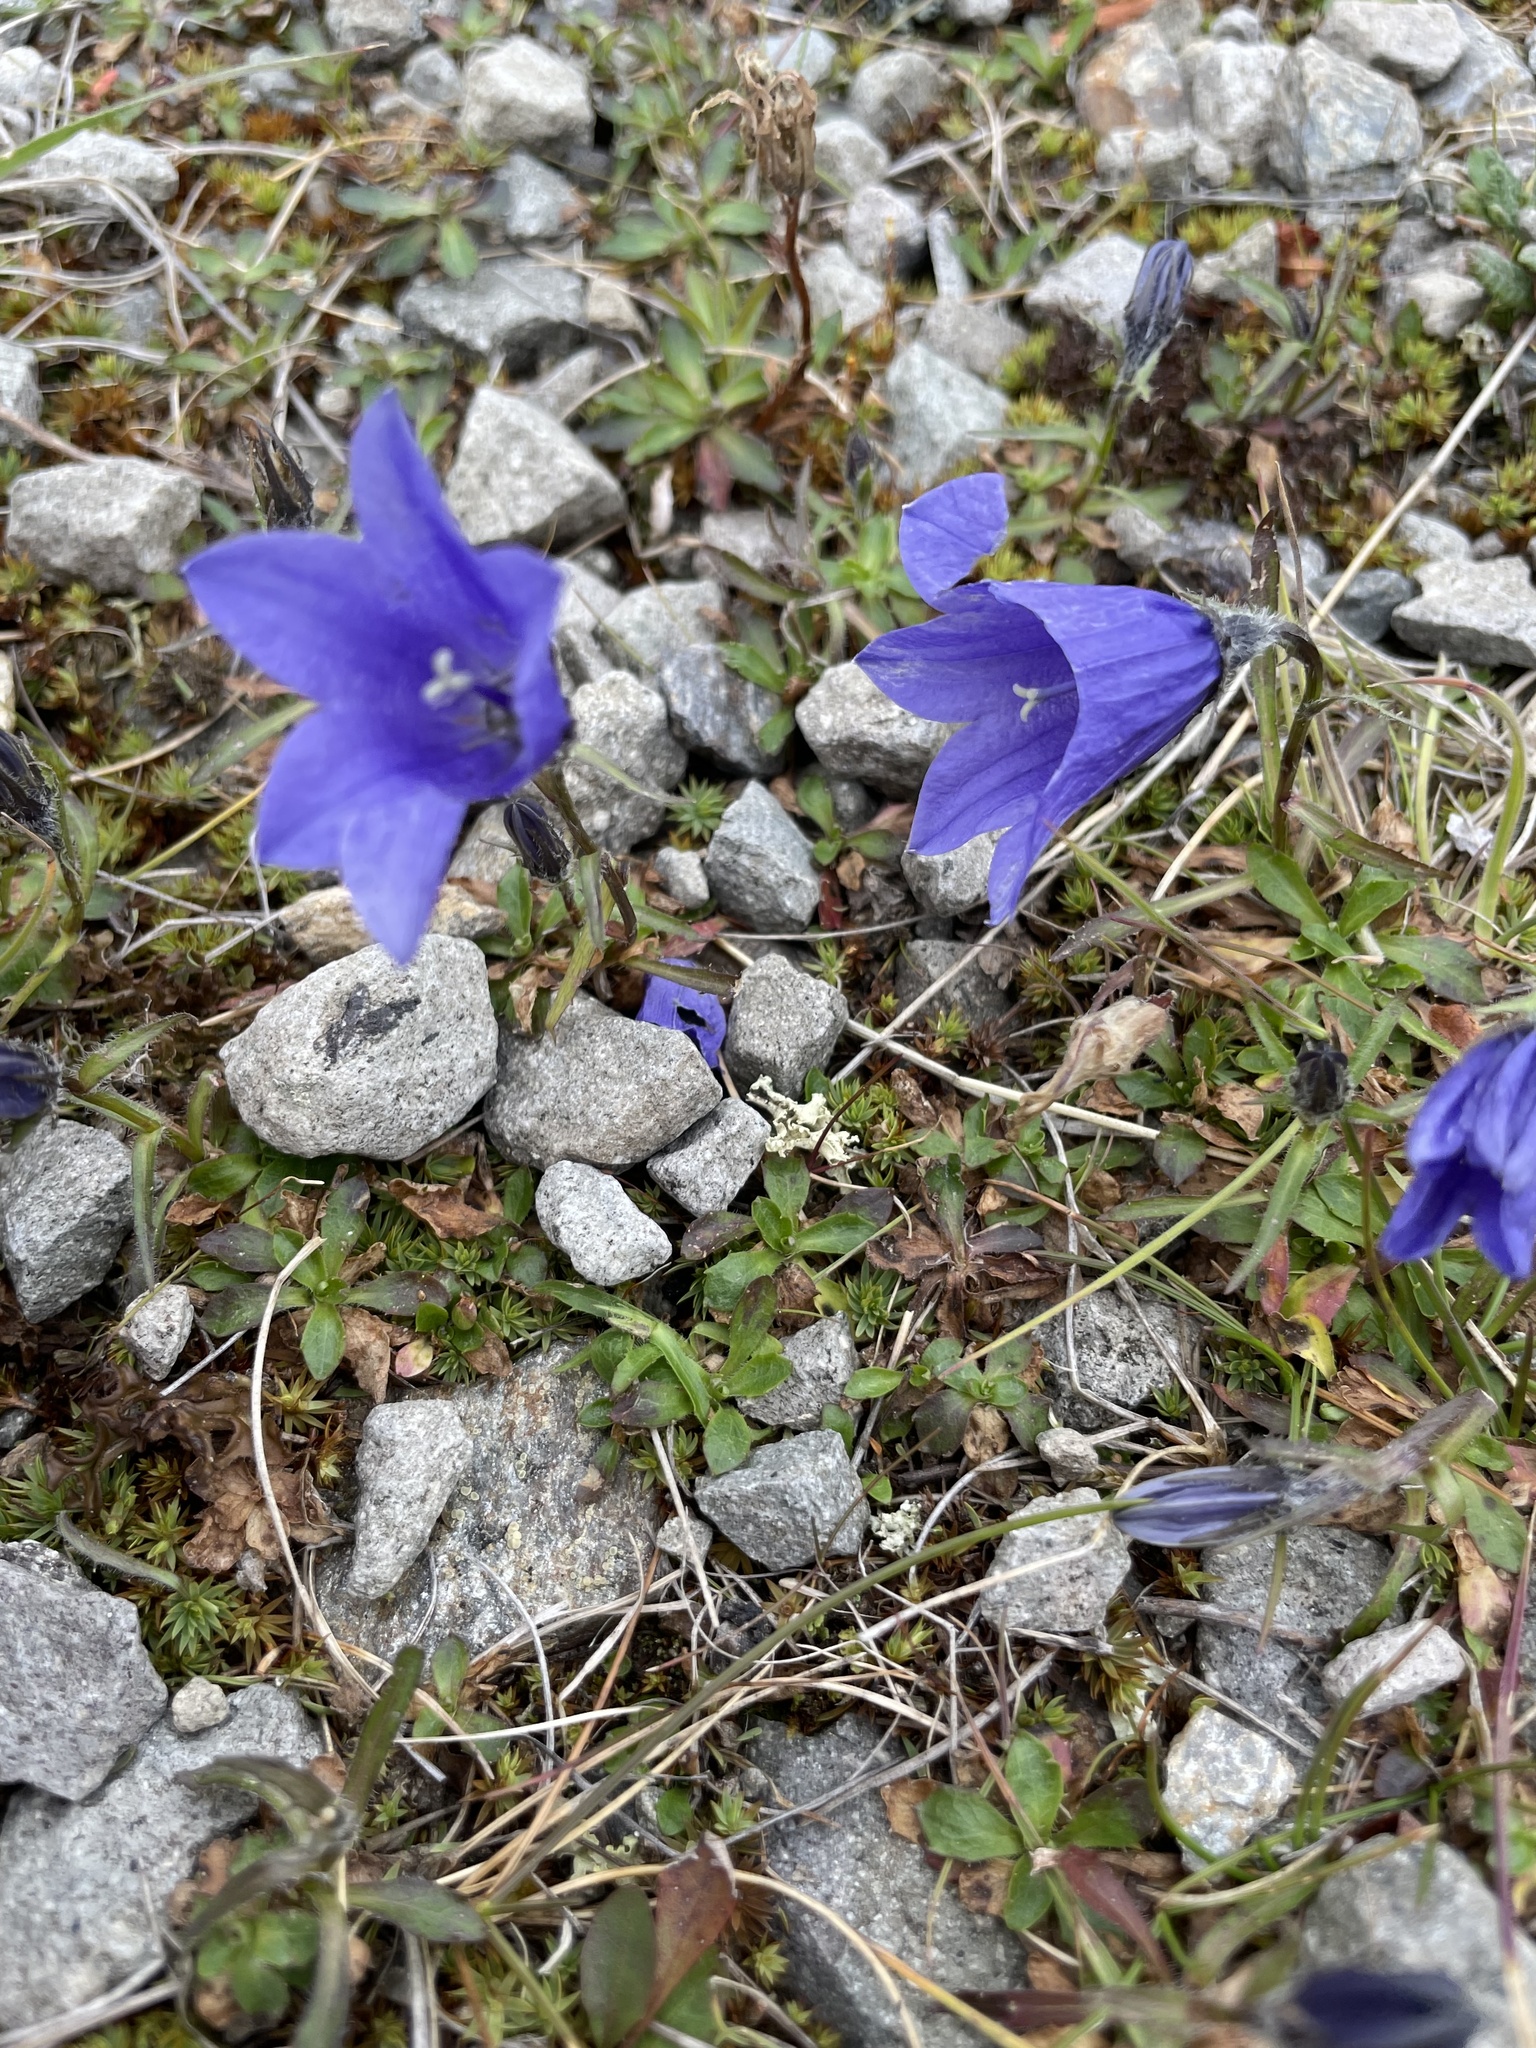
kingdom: Plantae
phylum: Tracheophyta
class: Magnoliopsida
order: Asterales
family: Campanulaceae
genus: Campanula
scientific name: Campanula lasiocarpa
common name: Mountain harebell
